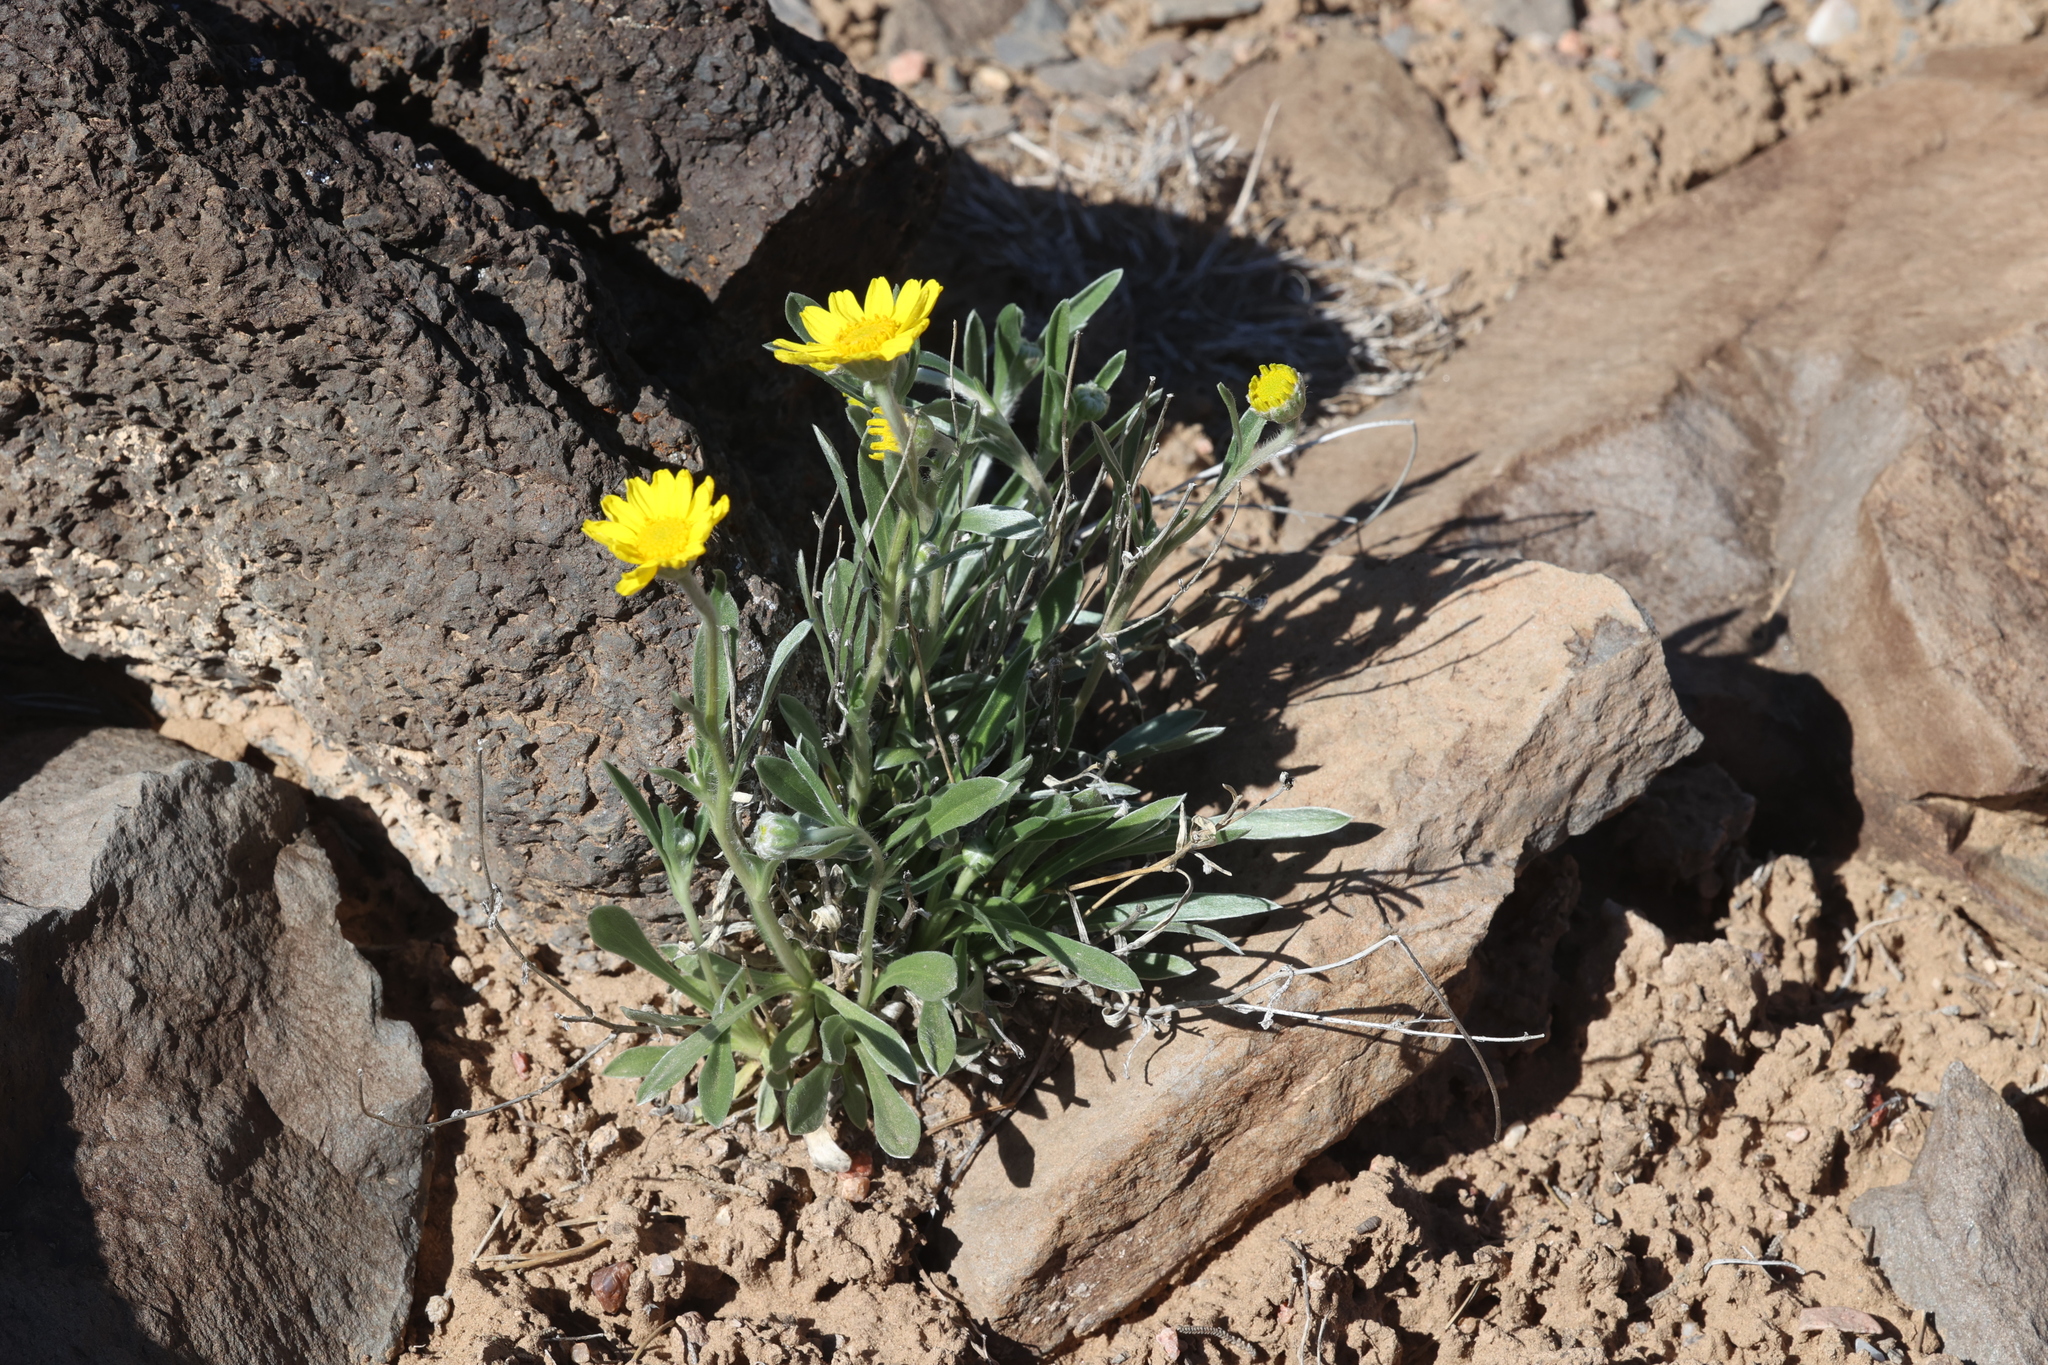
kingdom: Plantae
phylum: Tracheophyta
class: Magnoliopsida
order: Asterales
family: Asteraceae
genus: Tetraneuris
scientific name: Tetraneuris argentea
